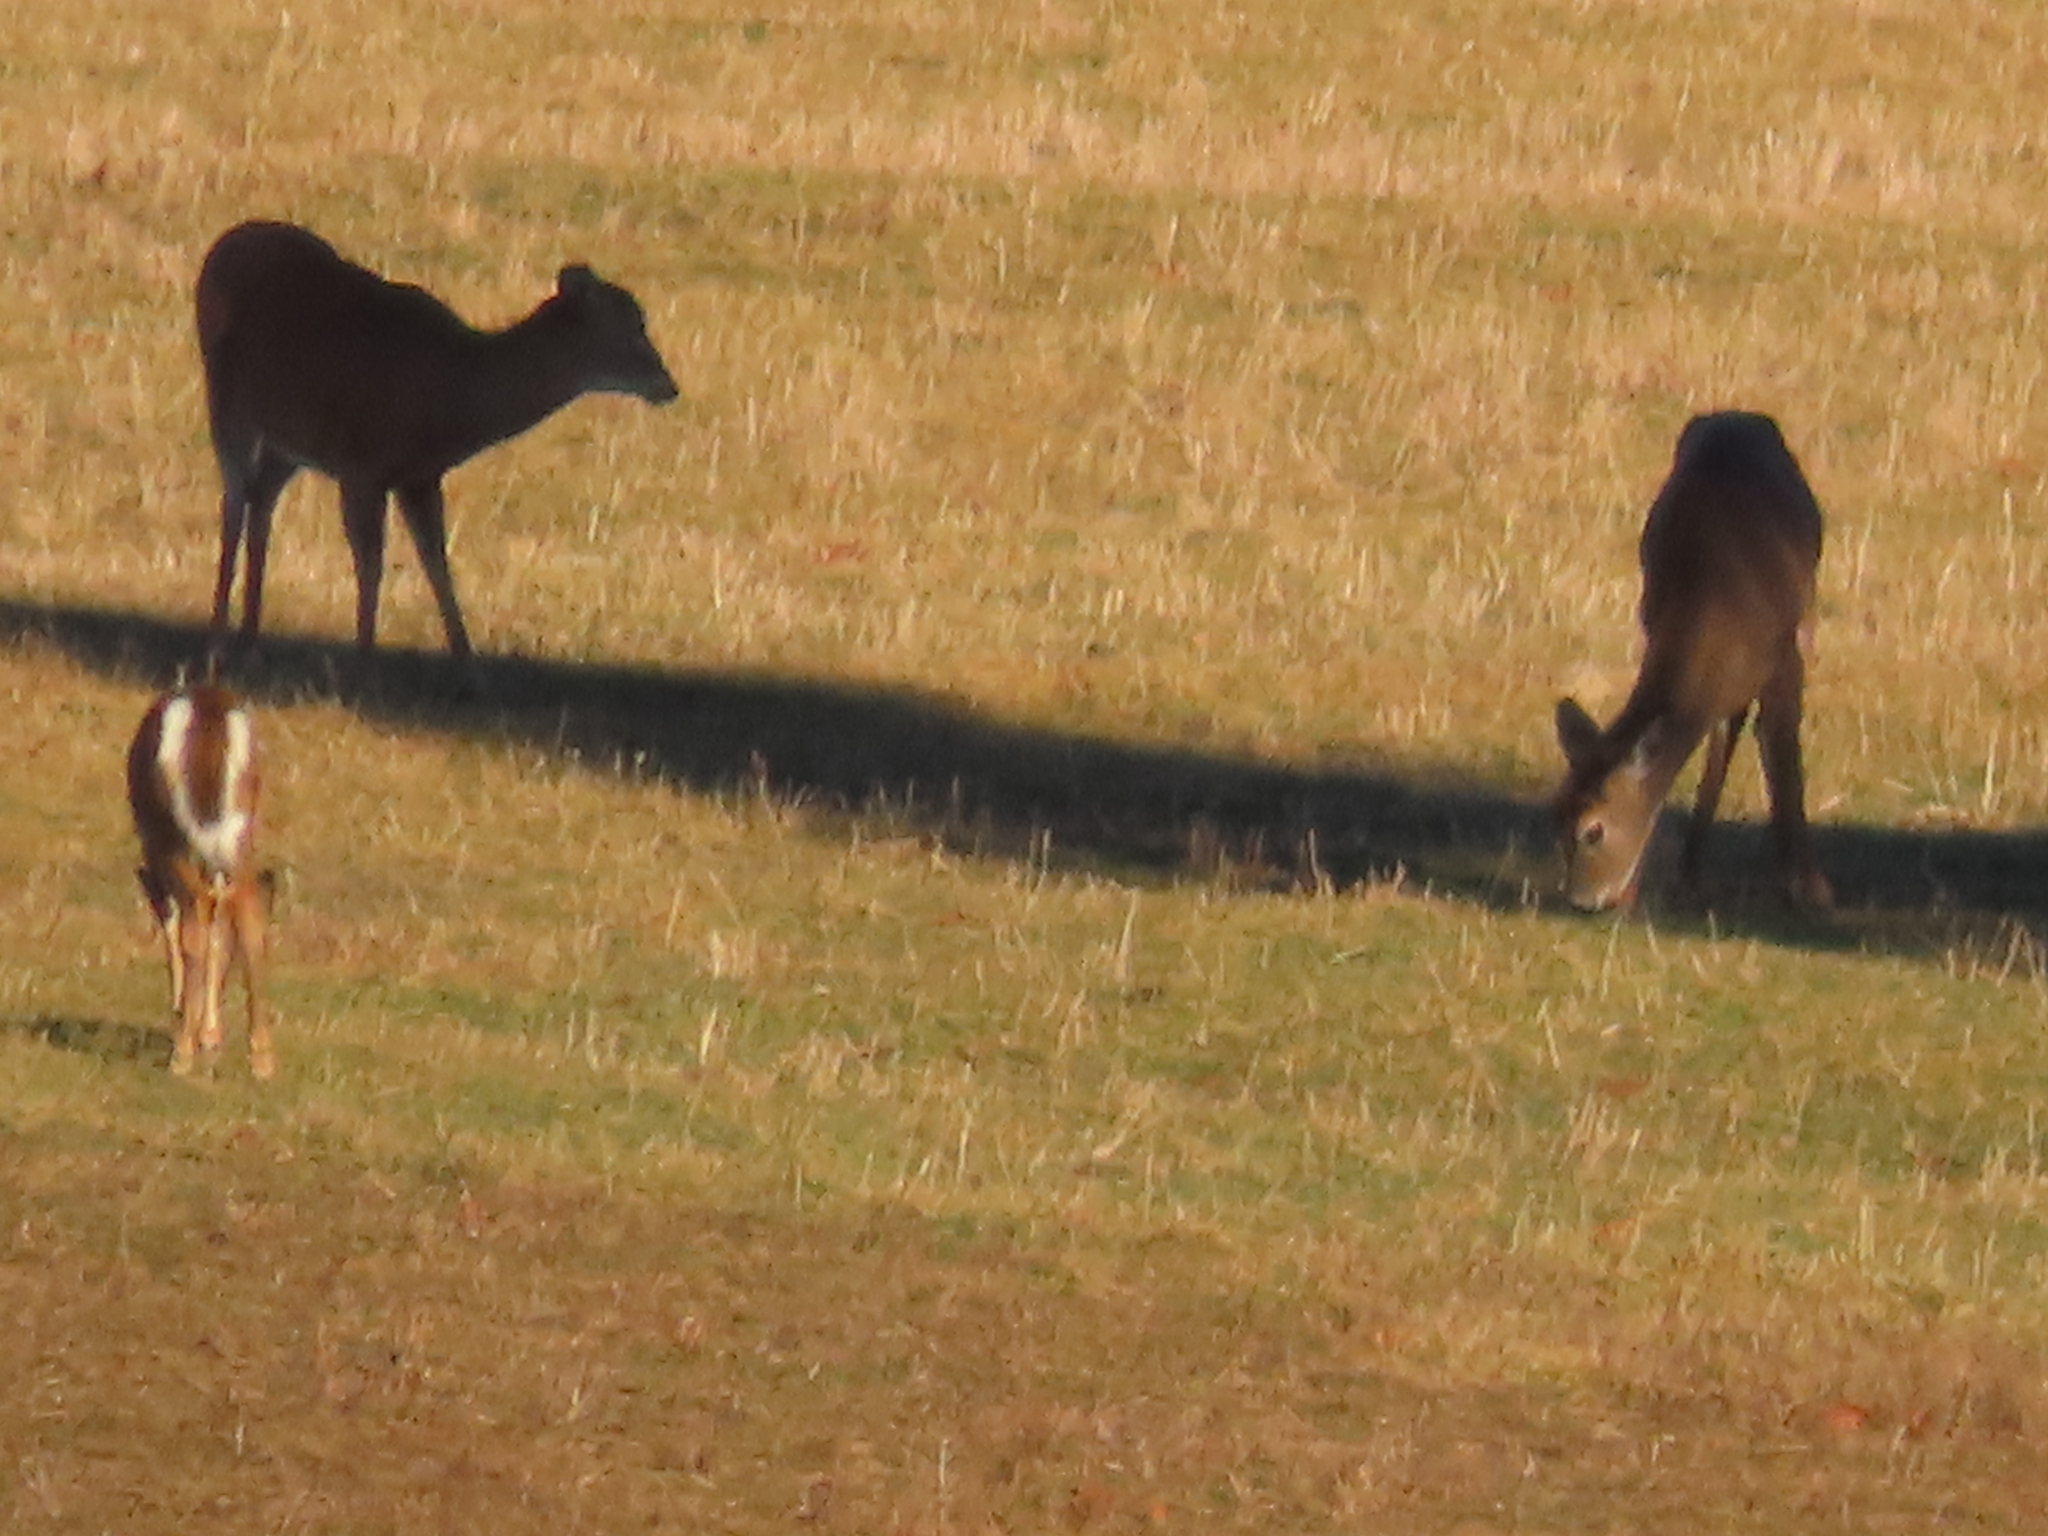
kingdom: Animalia
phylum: Chordata
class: Mammalia
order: Artiodactyla
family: Cervidae
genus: Odocoileus
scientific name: Odocoileus virginianus
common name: White-tailed deer
